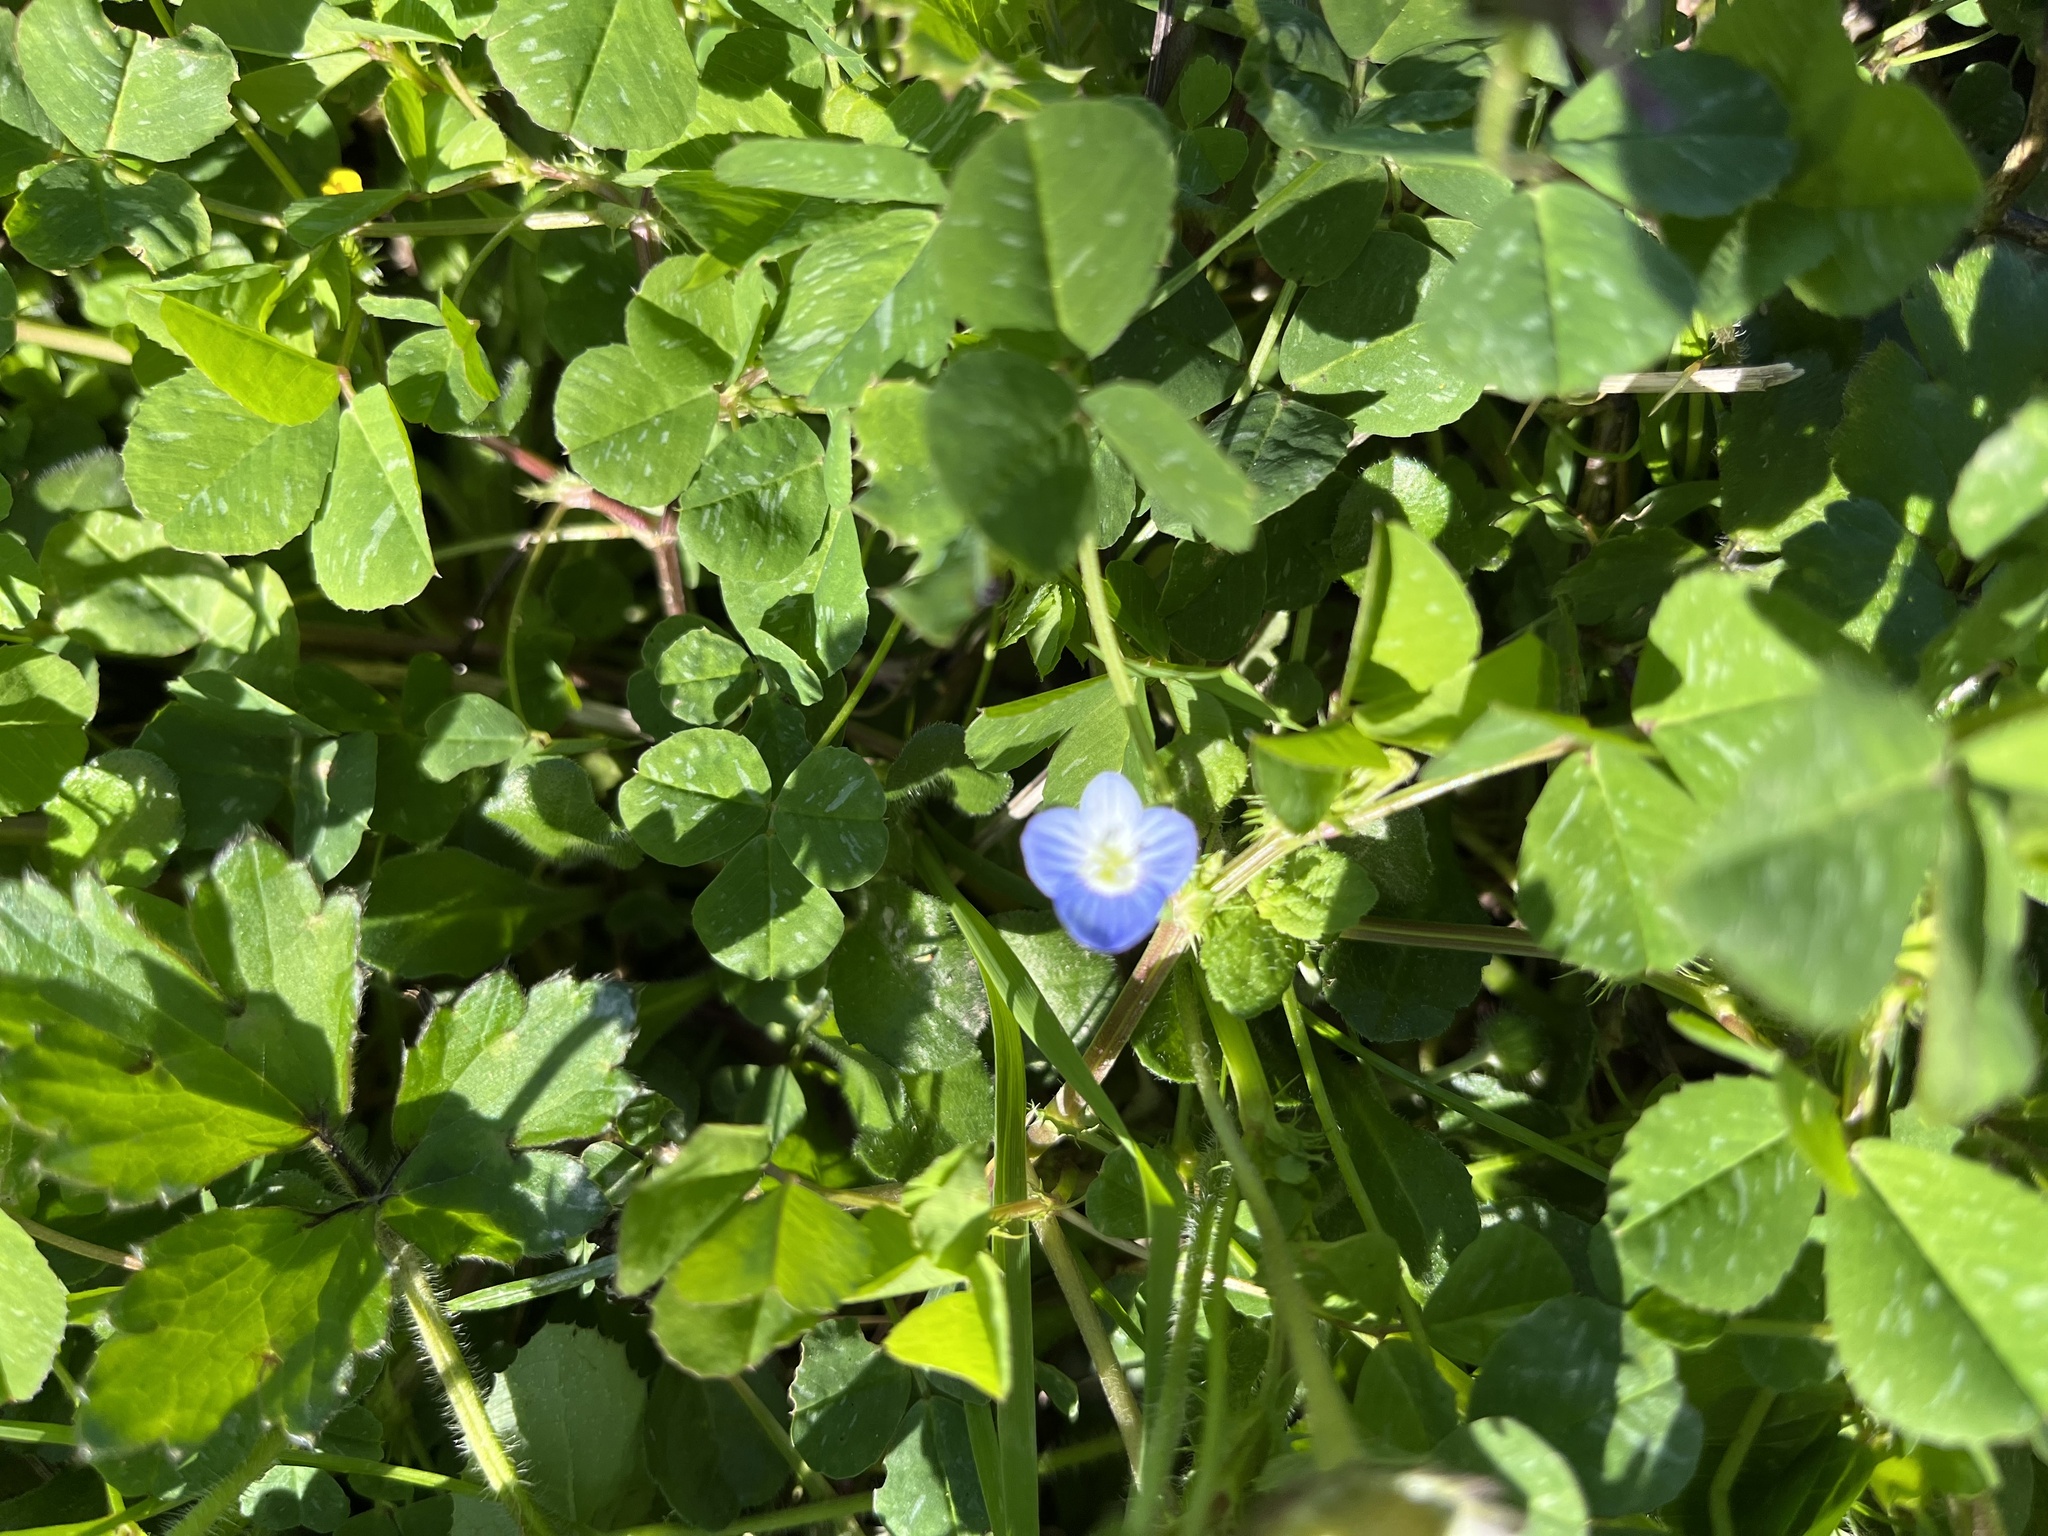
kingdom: Plantae
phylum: Tracheophyta
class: Magnoliopsida
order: Lamiales
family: Plantaginaceae
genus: Veronica
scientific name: Veronica persica
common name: Common field-speedwell
